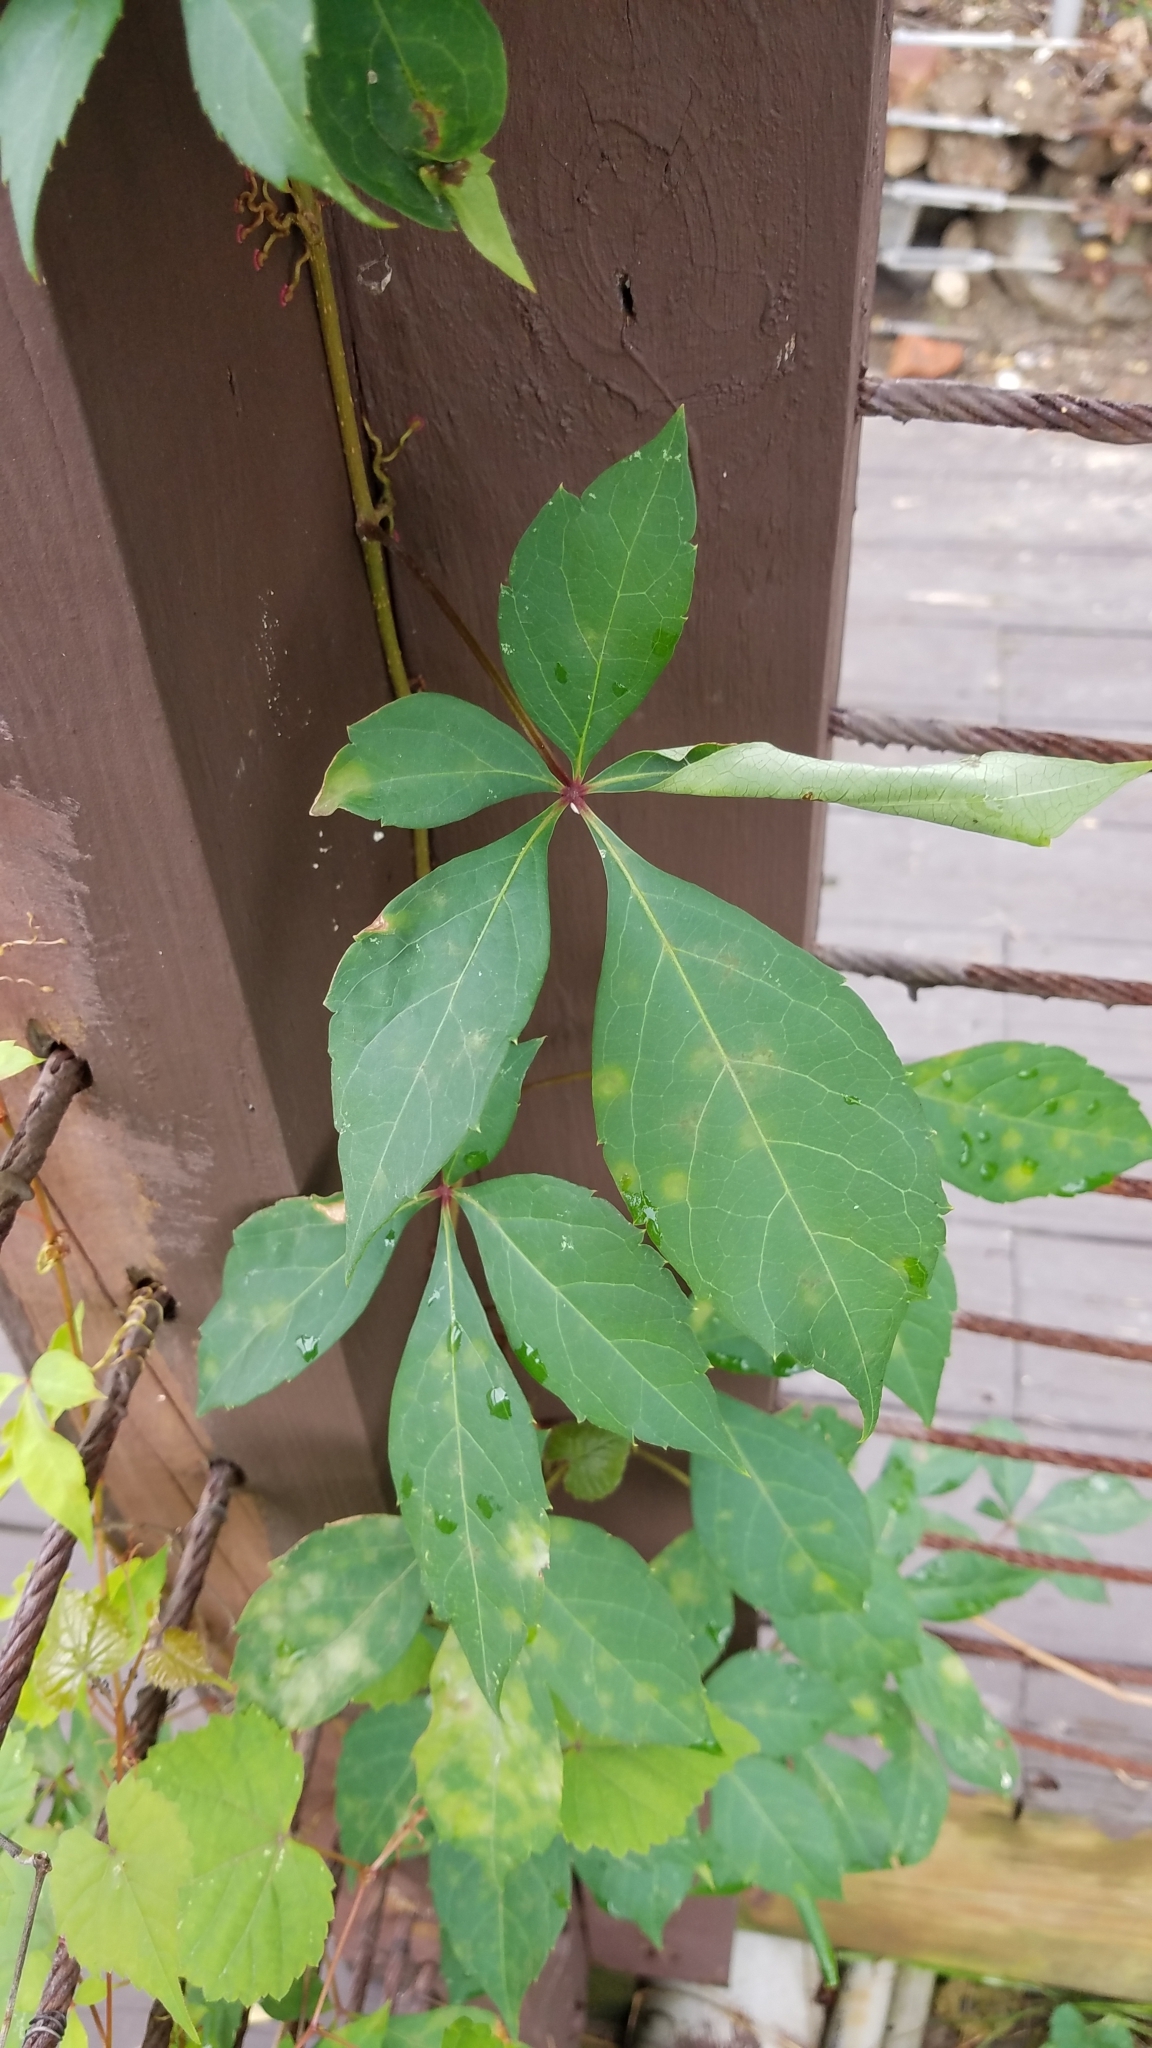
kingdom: Plantae
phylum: Tracheophyta
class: Magnoliopsida
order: Vitales
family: Vitaceae
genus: Parthenocissus
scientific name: Parthenocissus quinquefolia
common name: Virginia-creeper
